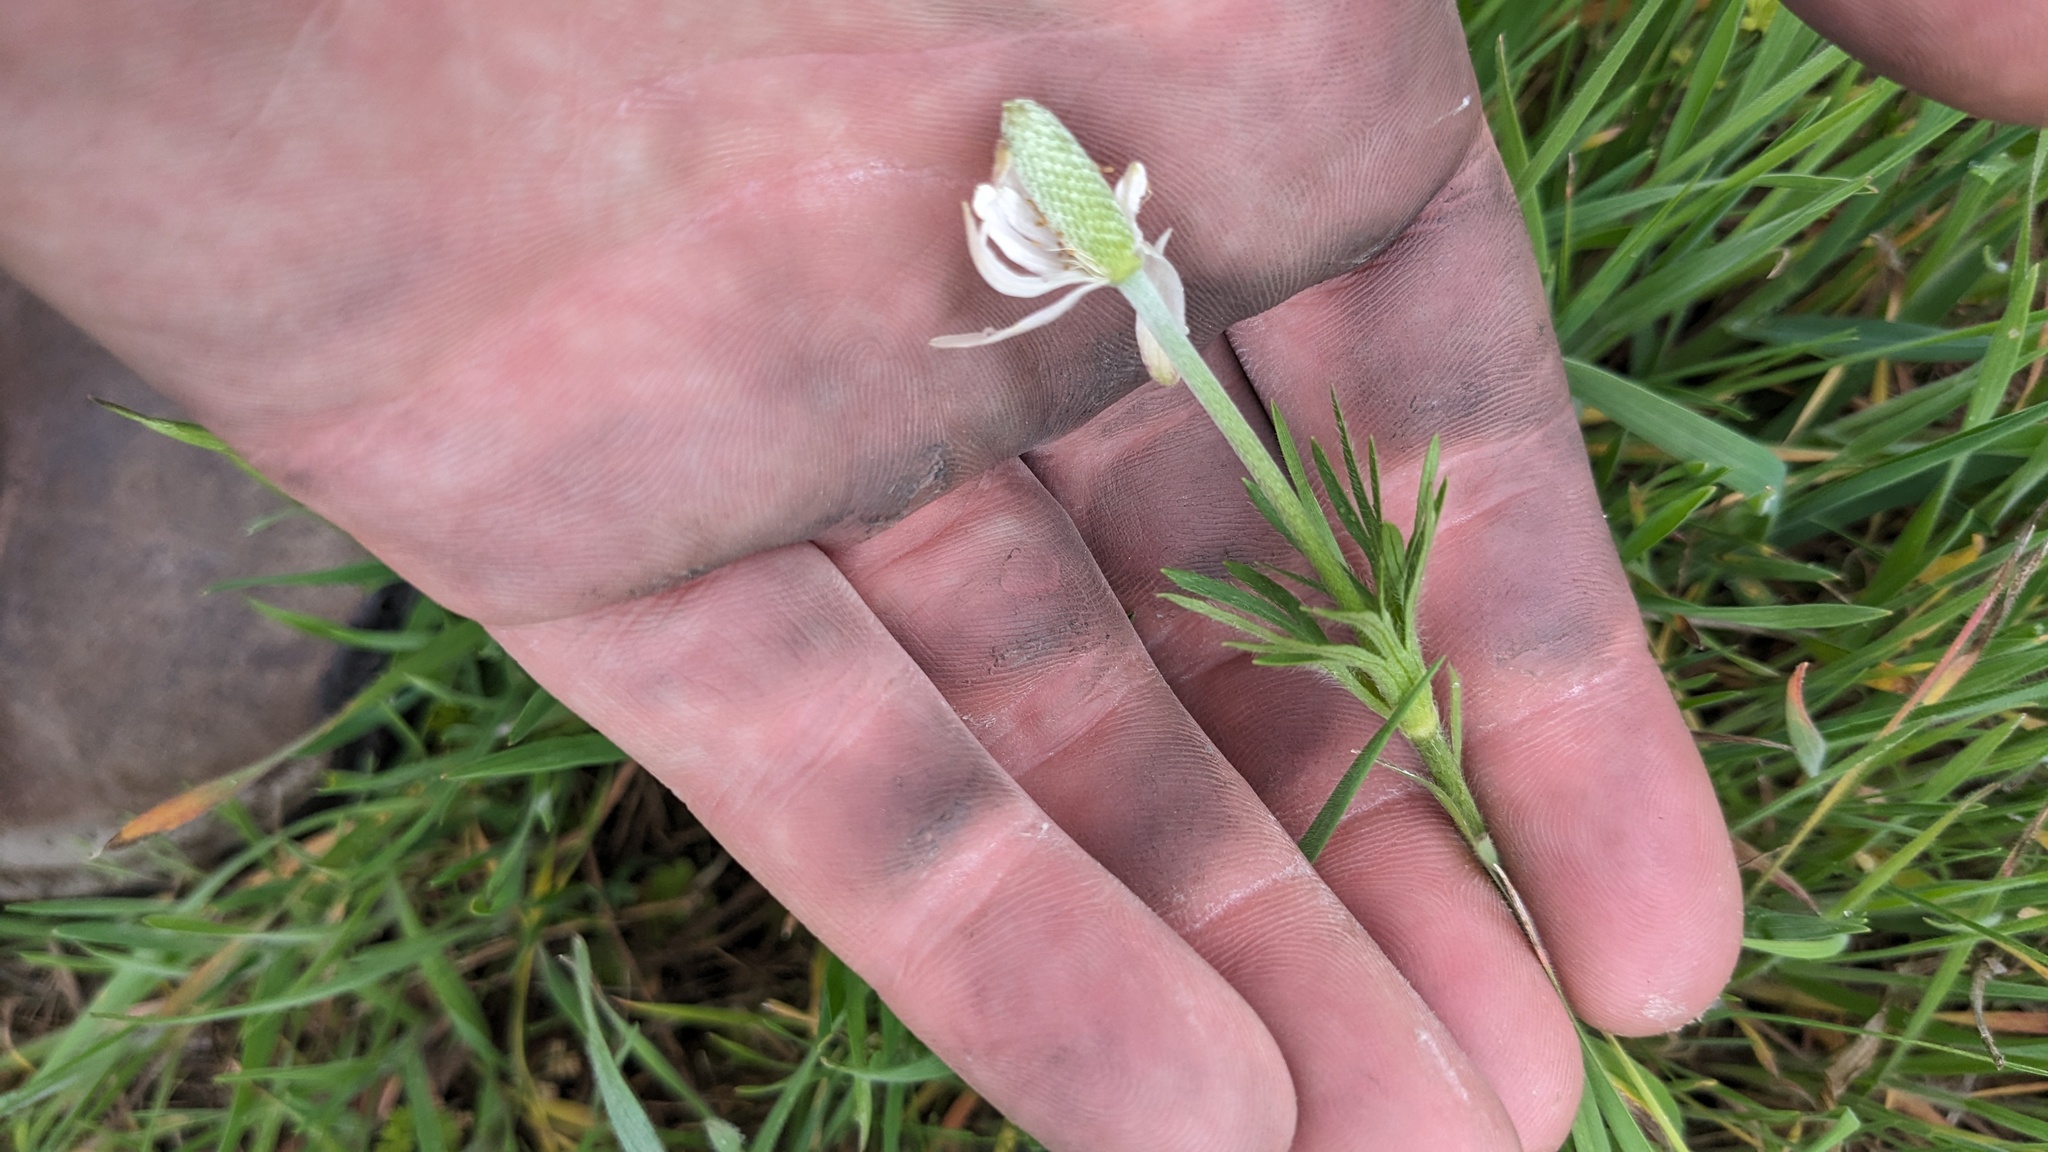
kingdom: Plantae
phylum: Tracheophyta
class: Magnoliopsida
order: Ranunculales
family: Ranunculaceae
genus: Anemone
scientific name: Anemone berlandieri
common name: Ten-petal anemone
